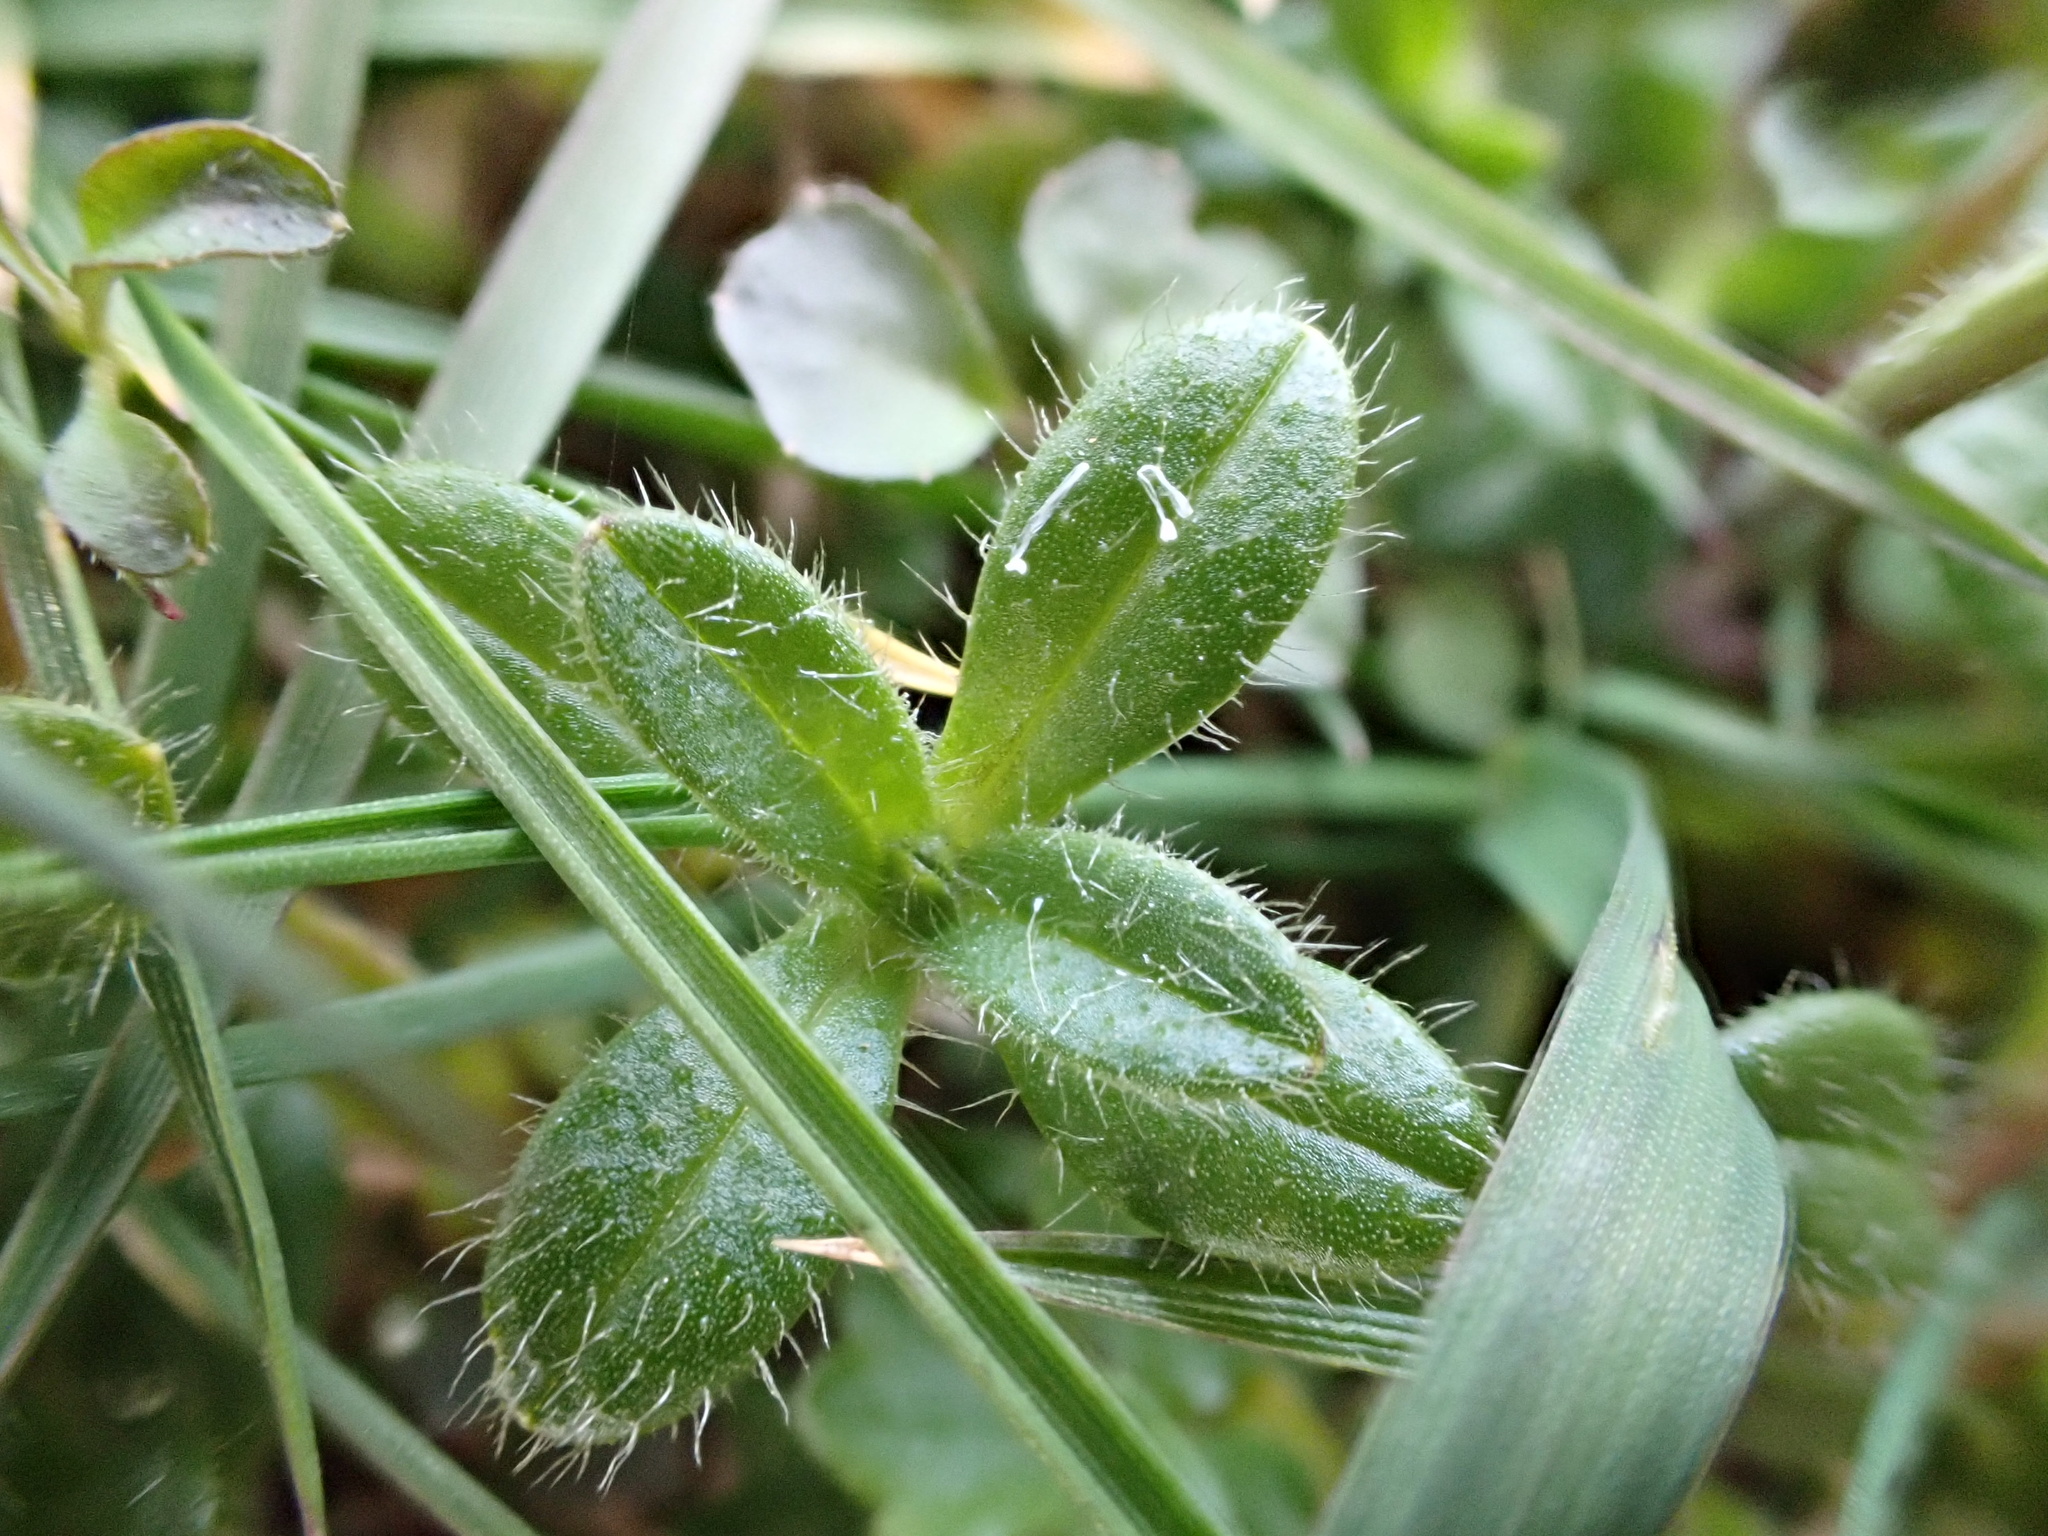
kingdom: Plantae
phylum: Tracheophyta
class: Magnoliopsida
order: Brassicales
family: Brassicaceae
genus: Cardamine
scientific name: Cardamine hirsuta
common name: Hairy bittercress
